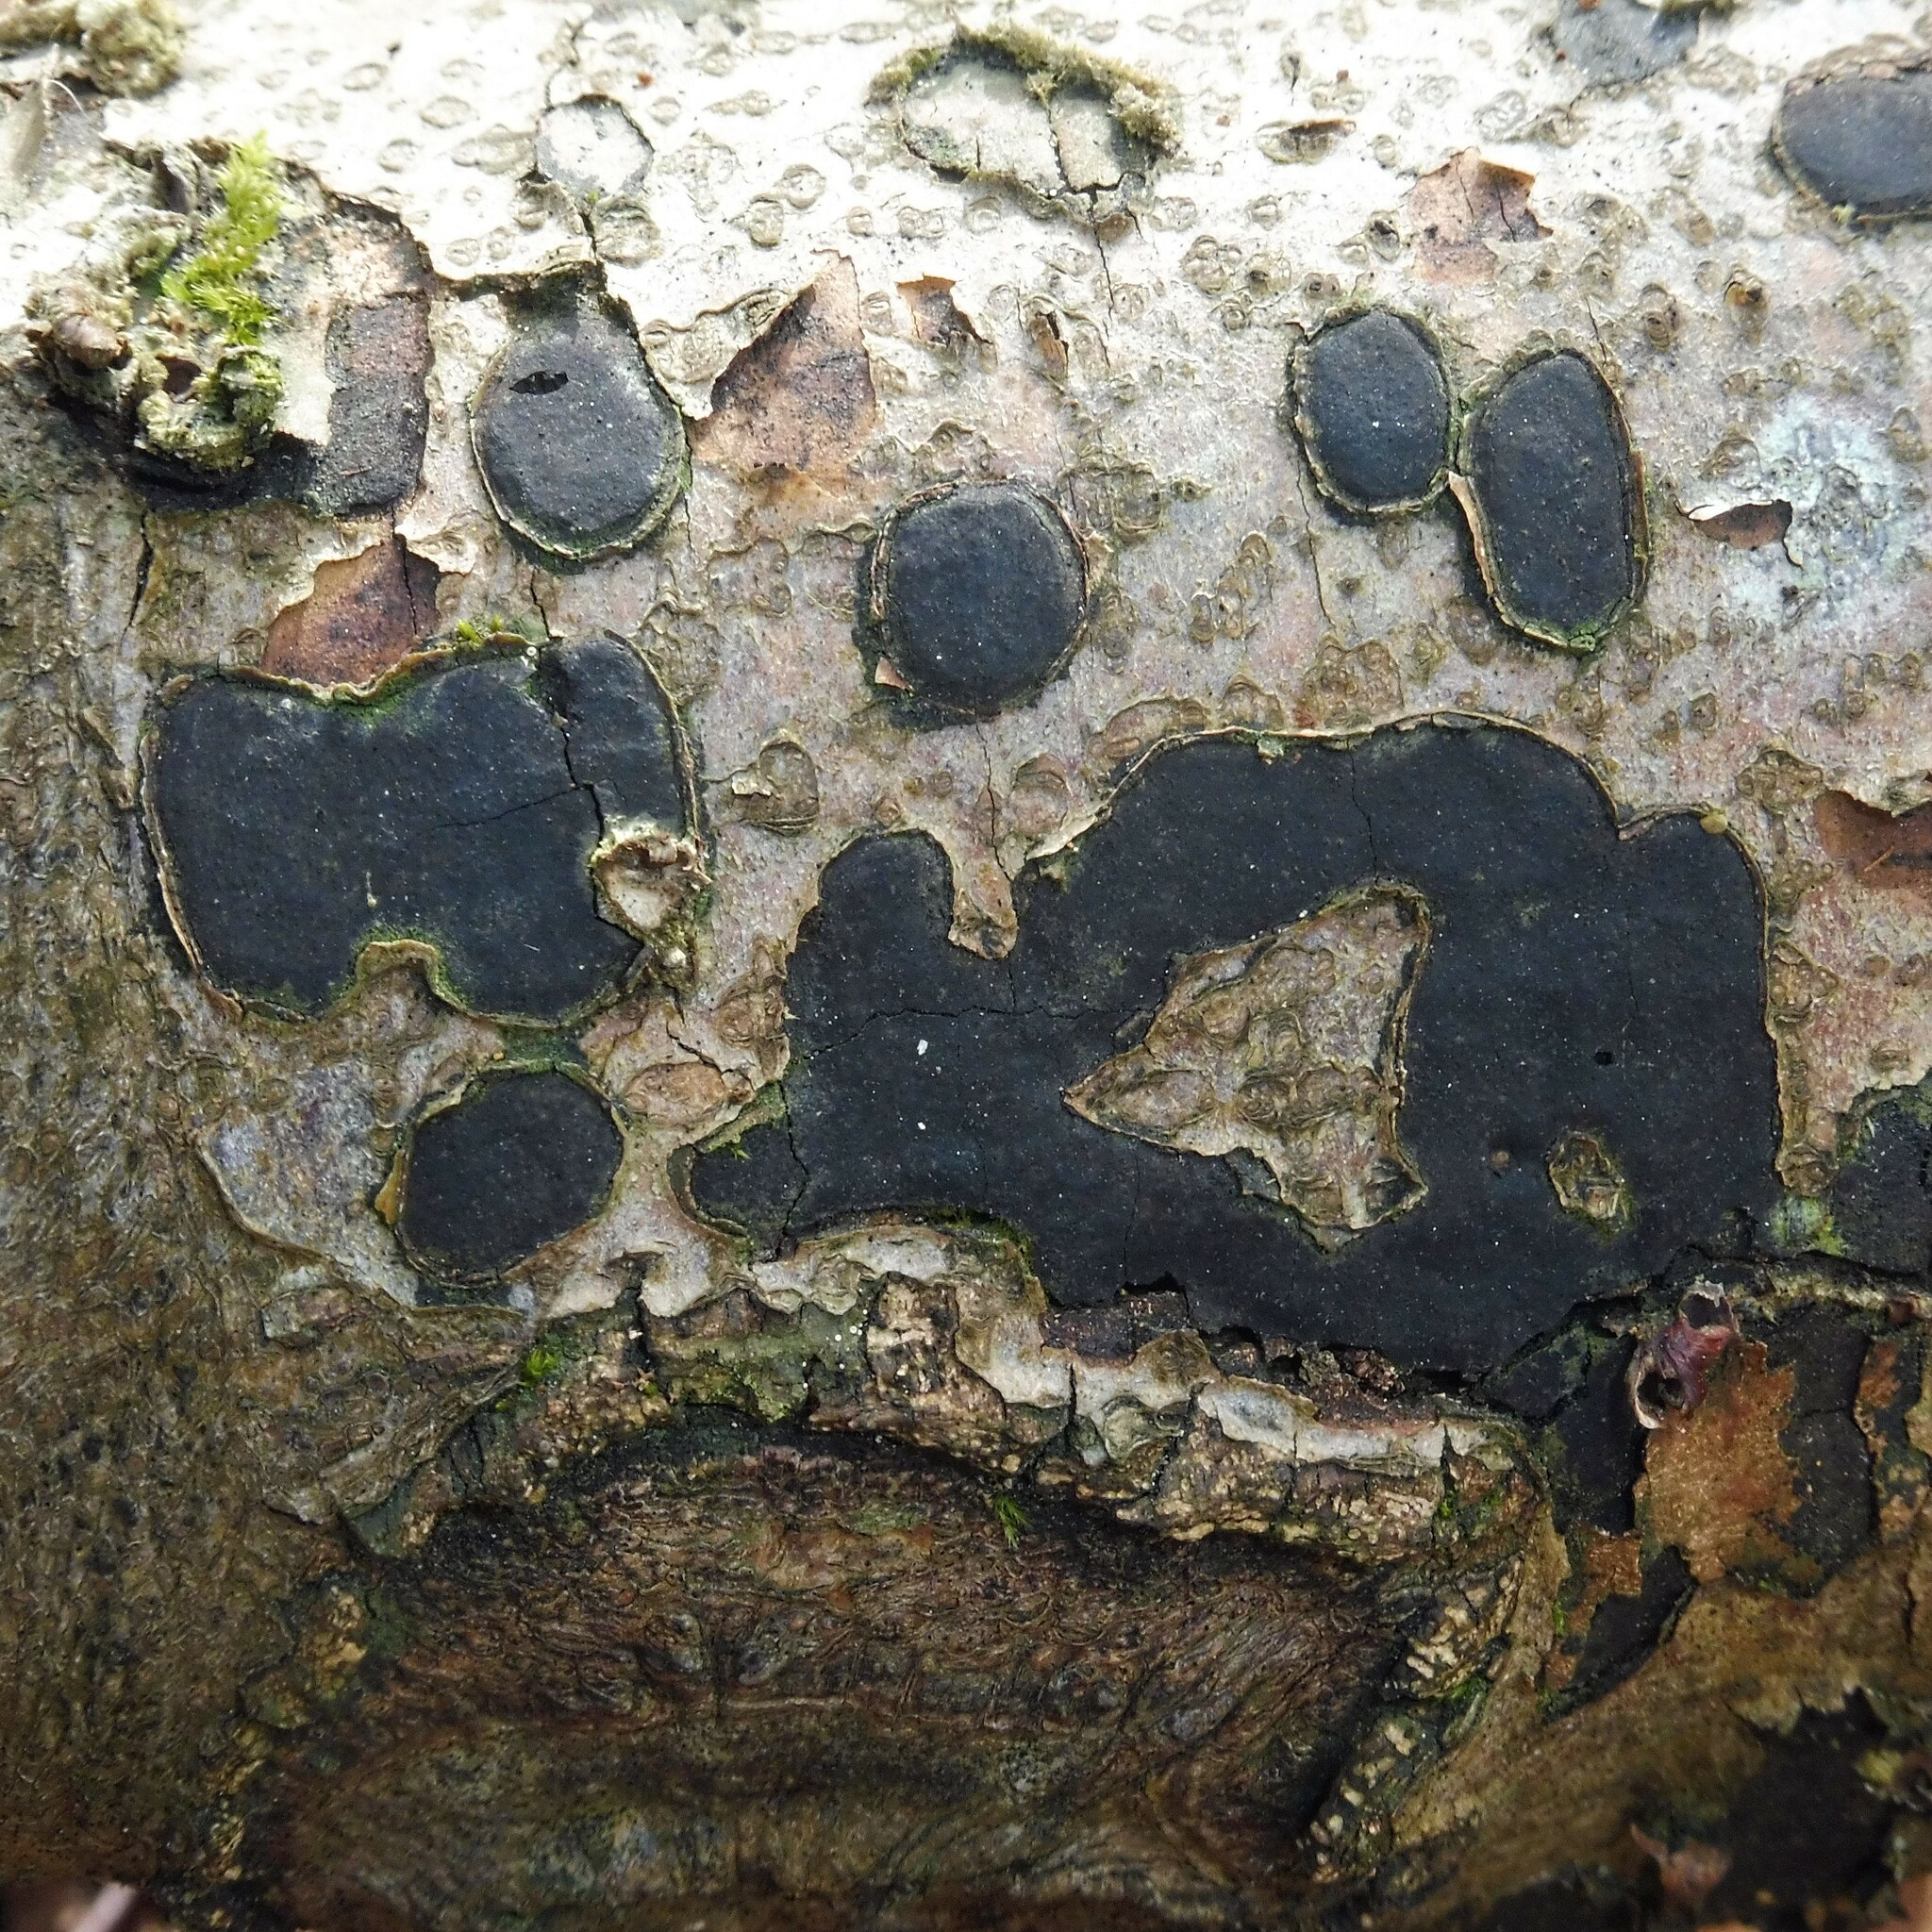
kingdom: Fungi
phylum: Ascomycota
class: Sordariomycetes
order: Xylariales
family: Graphostromataceae
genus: Biscogniauxia
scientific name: Biscogniauxia nummularia
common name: Beech tarcrust
